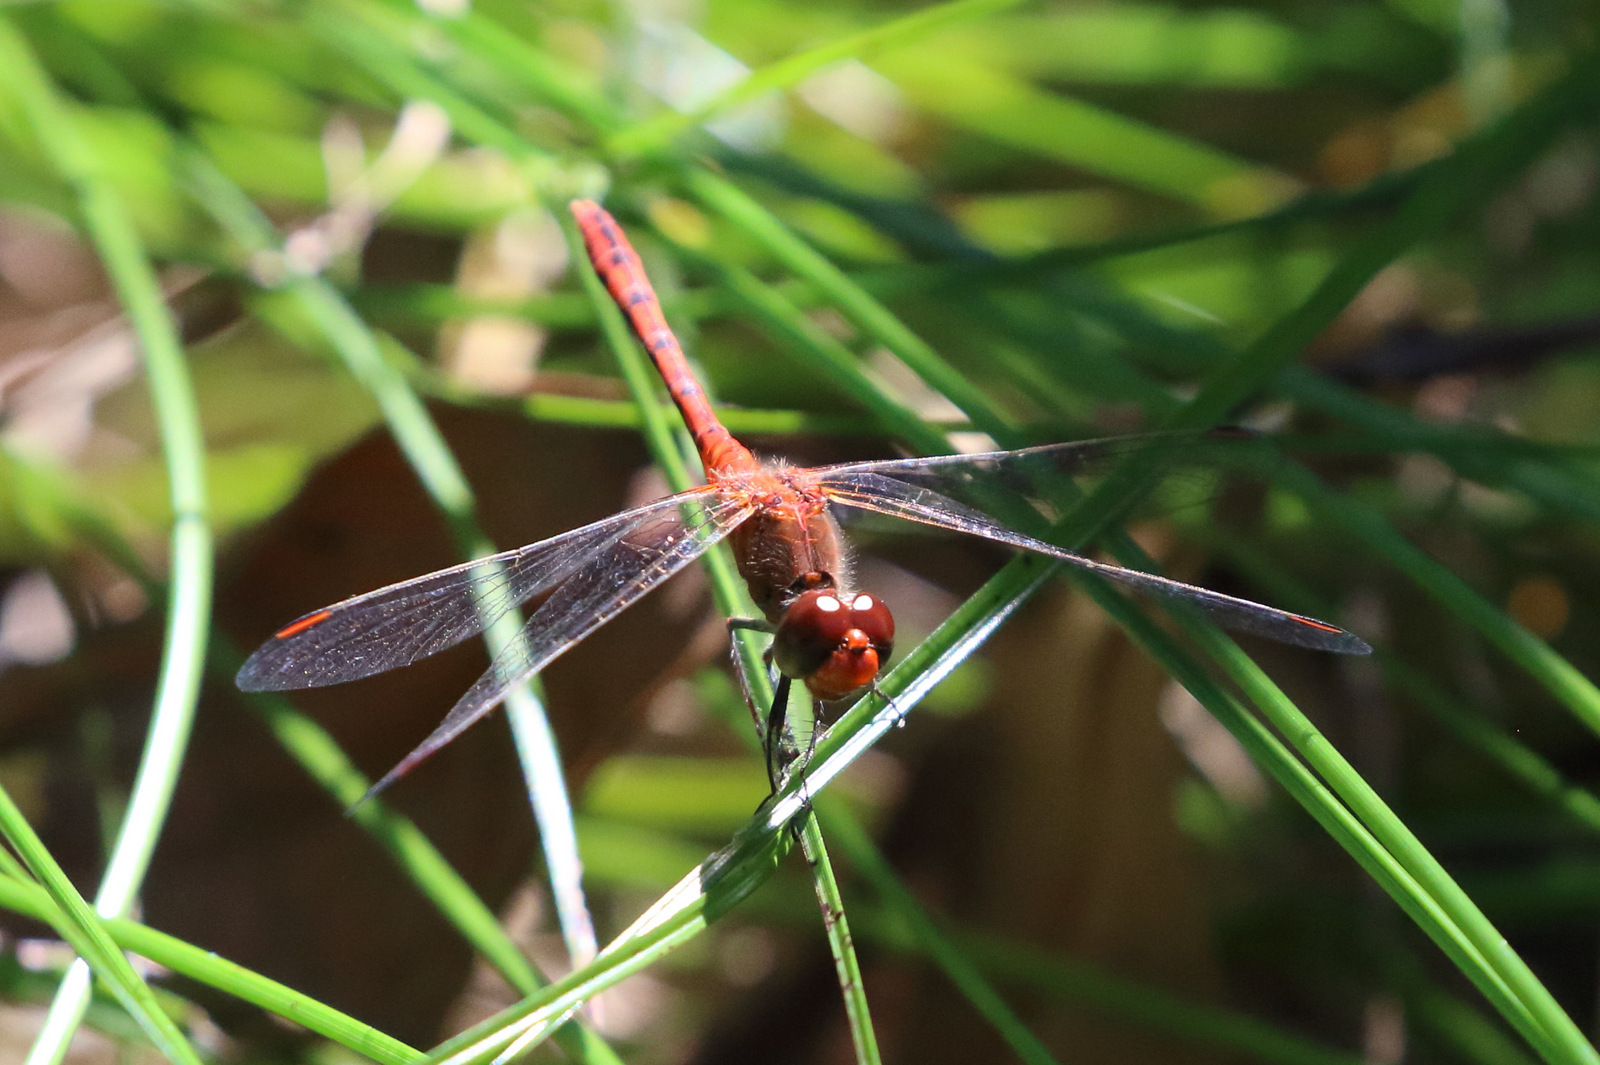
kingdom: Animalia
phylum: Arthropoda
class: Insecta
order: Odonata
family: Libellulidae
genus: Diplacodes
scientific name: Diplacodes bipunctata
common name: Red percher dragonfly
